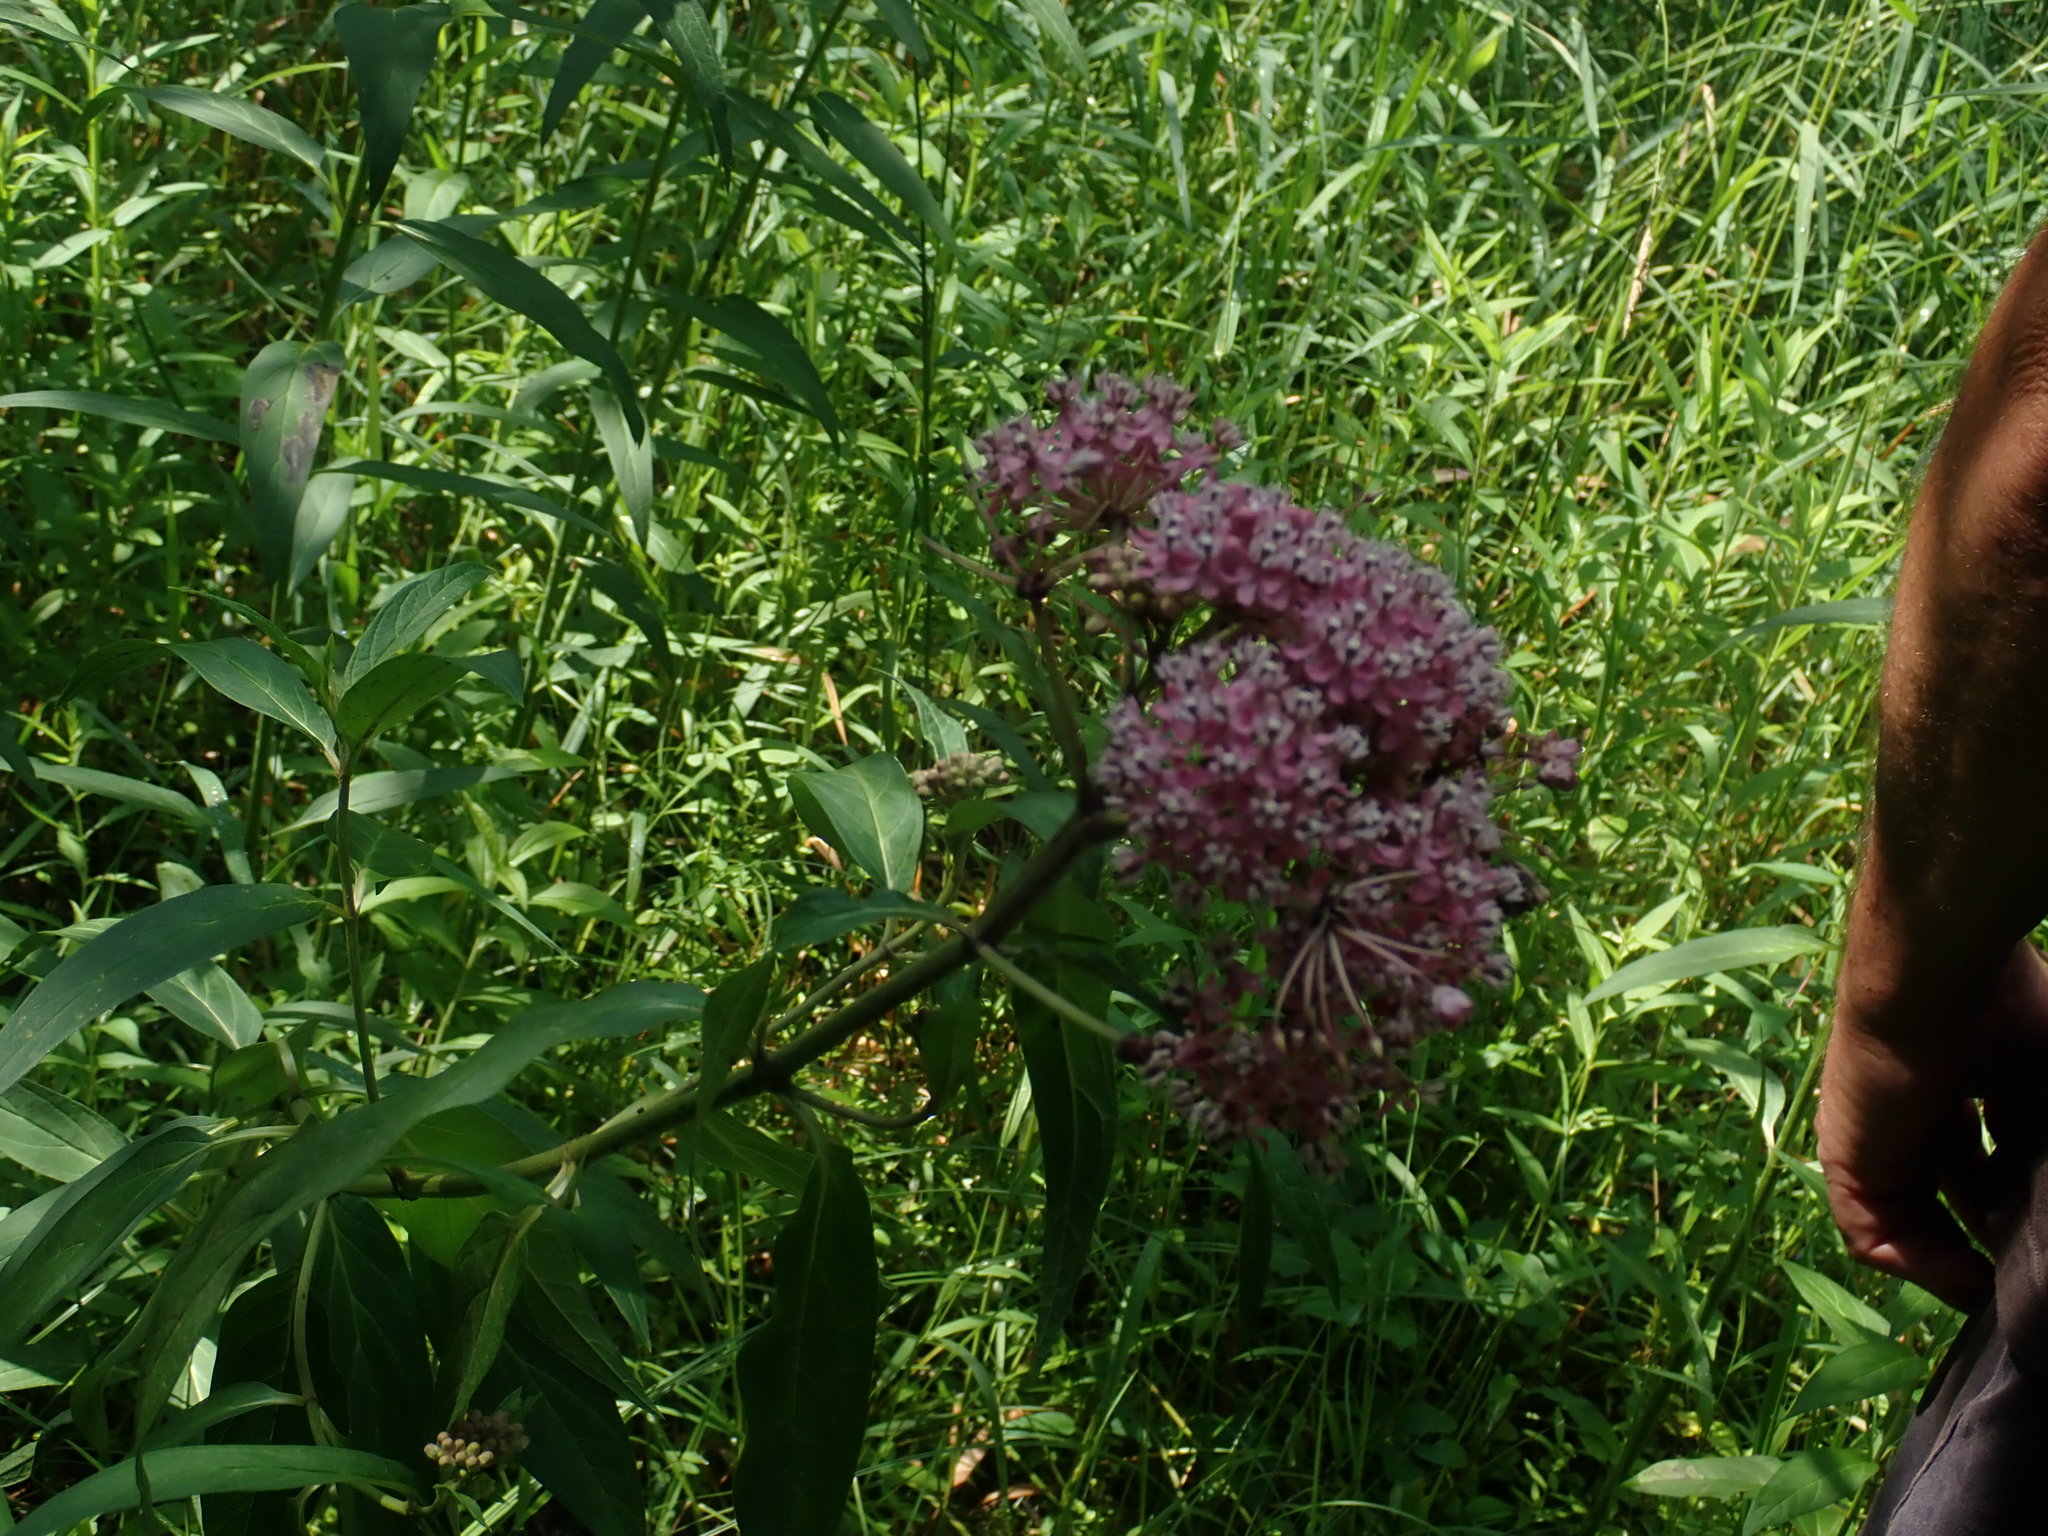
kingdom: Plantae
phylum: Tracheophyta
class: Magnoliopsida
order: Gentianales
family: Apocynaceae
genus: Asclepias
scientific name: Asclepias incarnata
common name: Swamp milkweed
